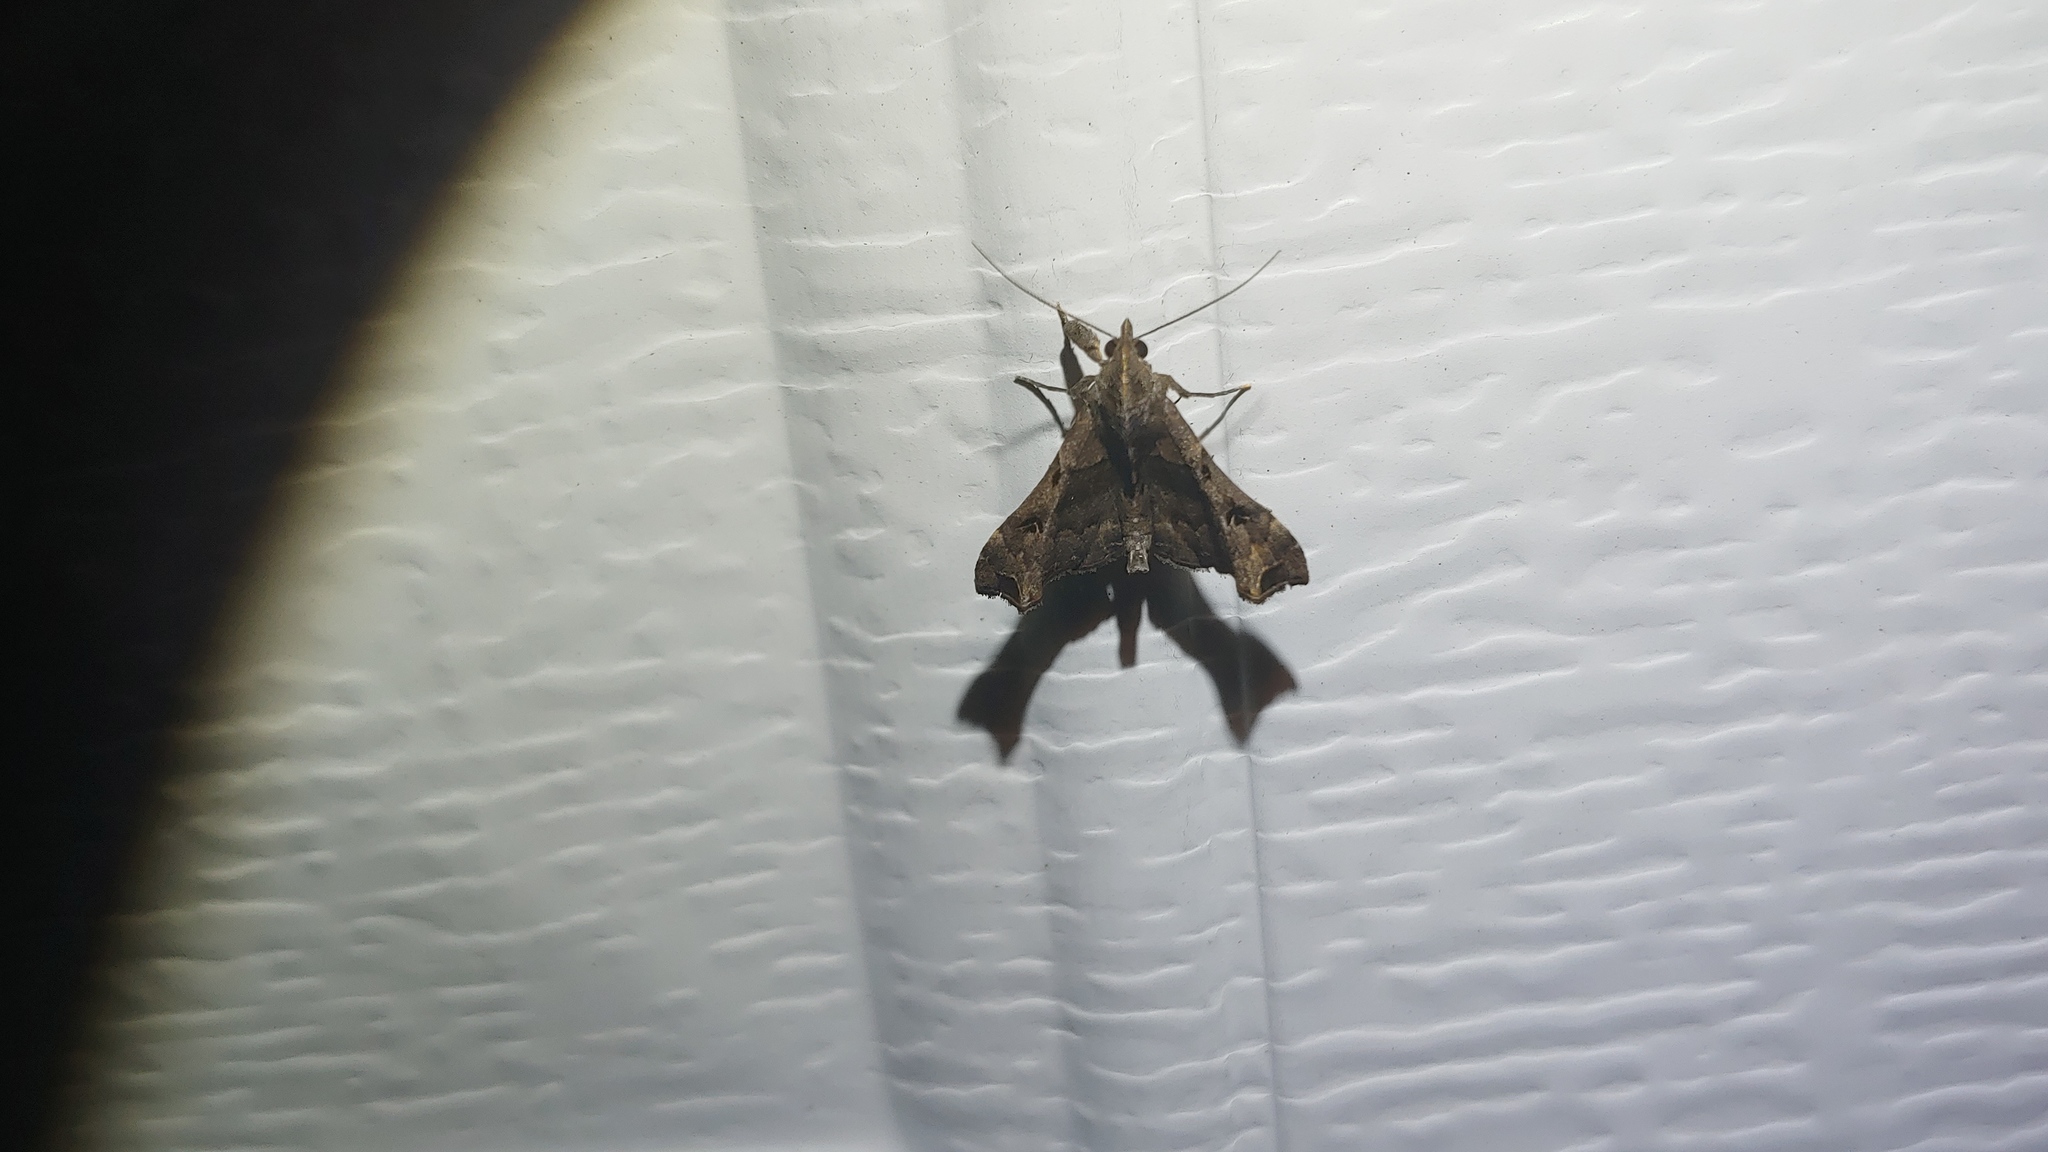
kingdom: Animalia
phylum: Arthropoda
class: Insecta
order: Lepidoptera
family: Erebidae
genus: Palthis
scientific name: Palthis asopialis
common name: Faint-spotted palthis moth
